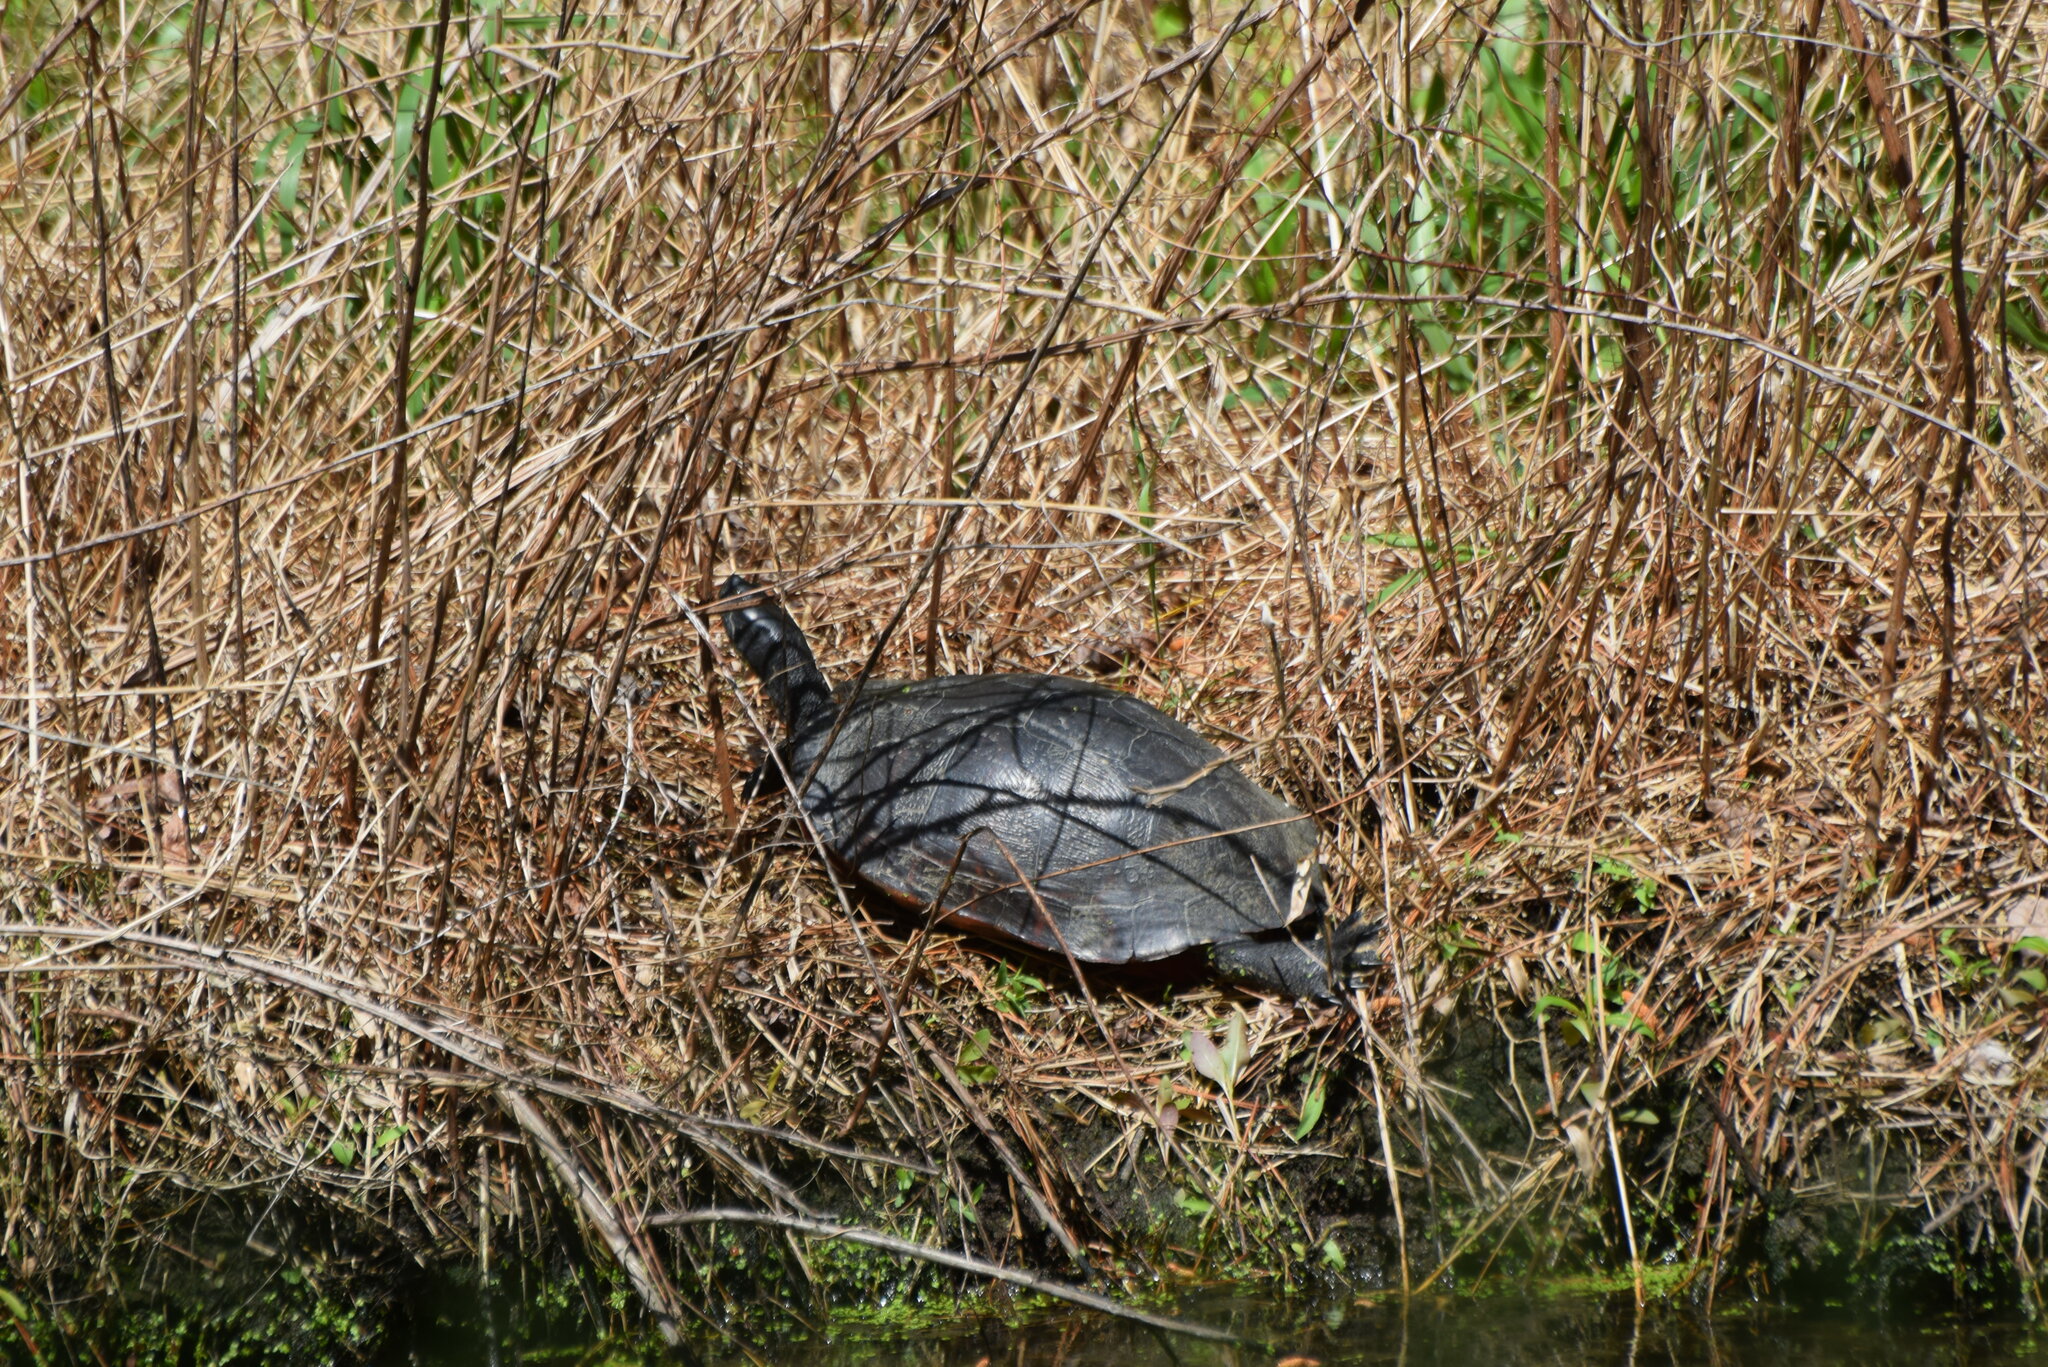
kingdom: Animalia
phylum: Chordata
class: Testudines
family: Emydidae
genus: Pseudemys
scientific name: Pseudemys rubriventris
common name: American red-bellied turtle
